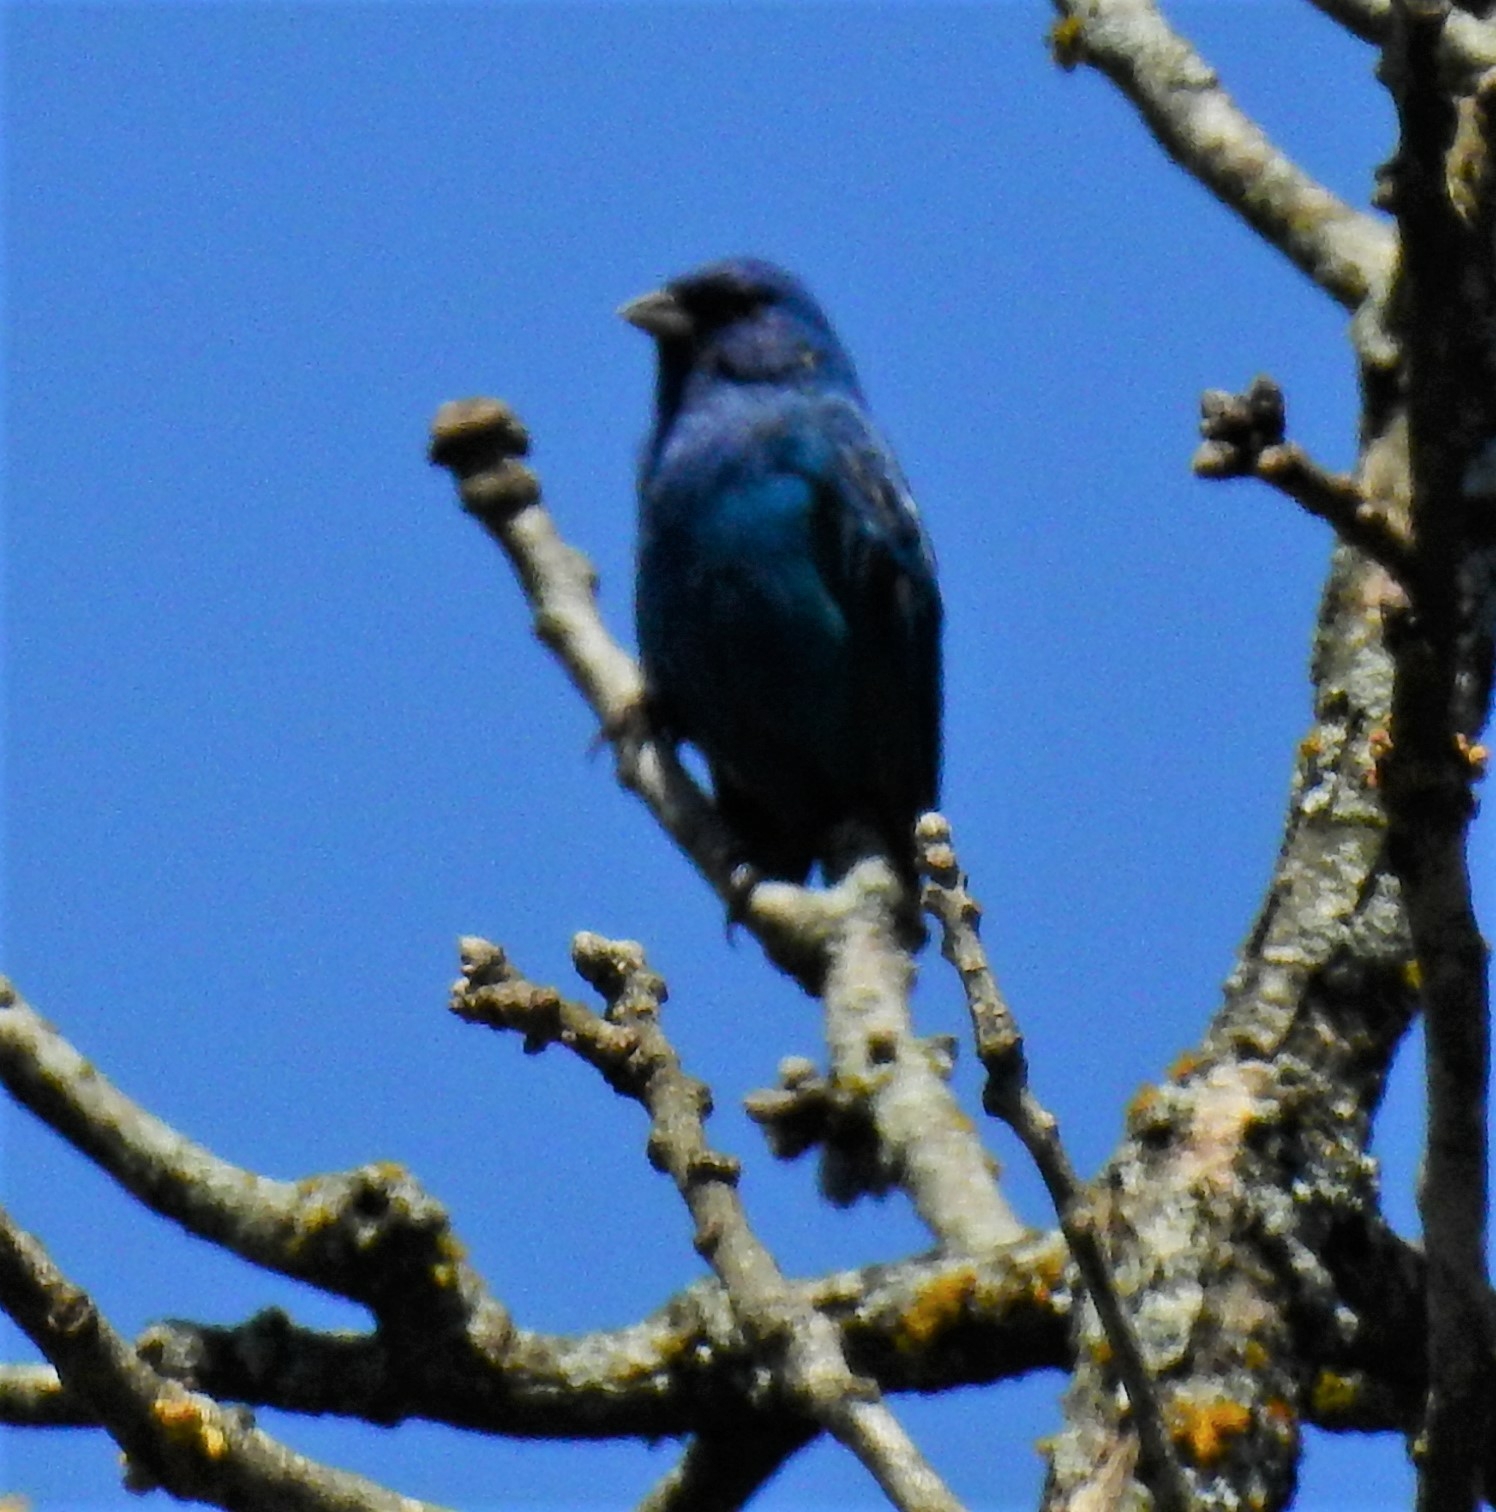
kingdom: Animalia
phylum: Chordata
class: Aves
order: Passeriformes
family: Cardinalidae
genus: Passerina
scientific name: Passerina cyanea
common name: Indigo bunting
